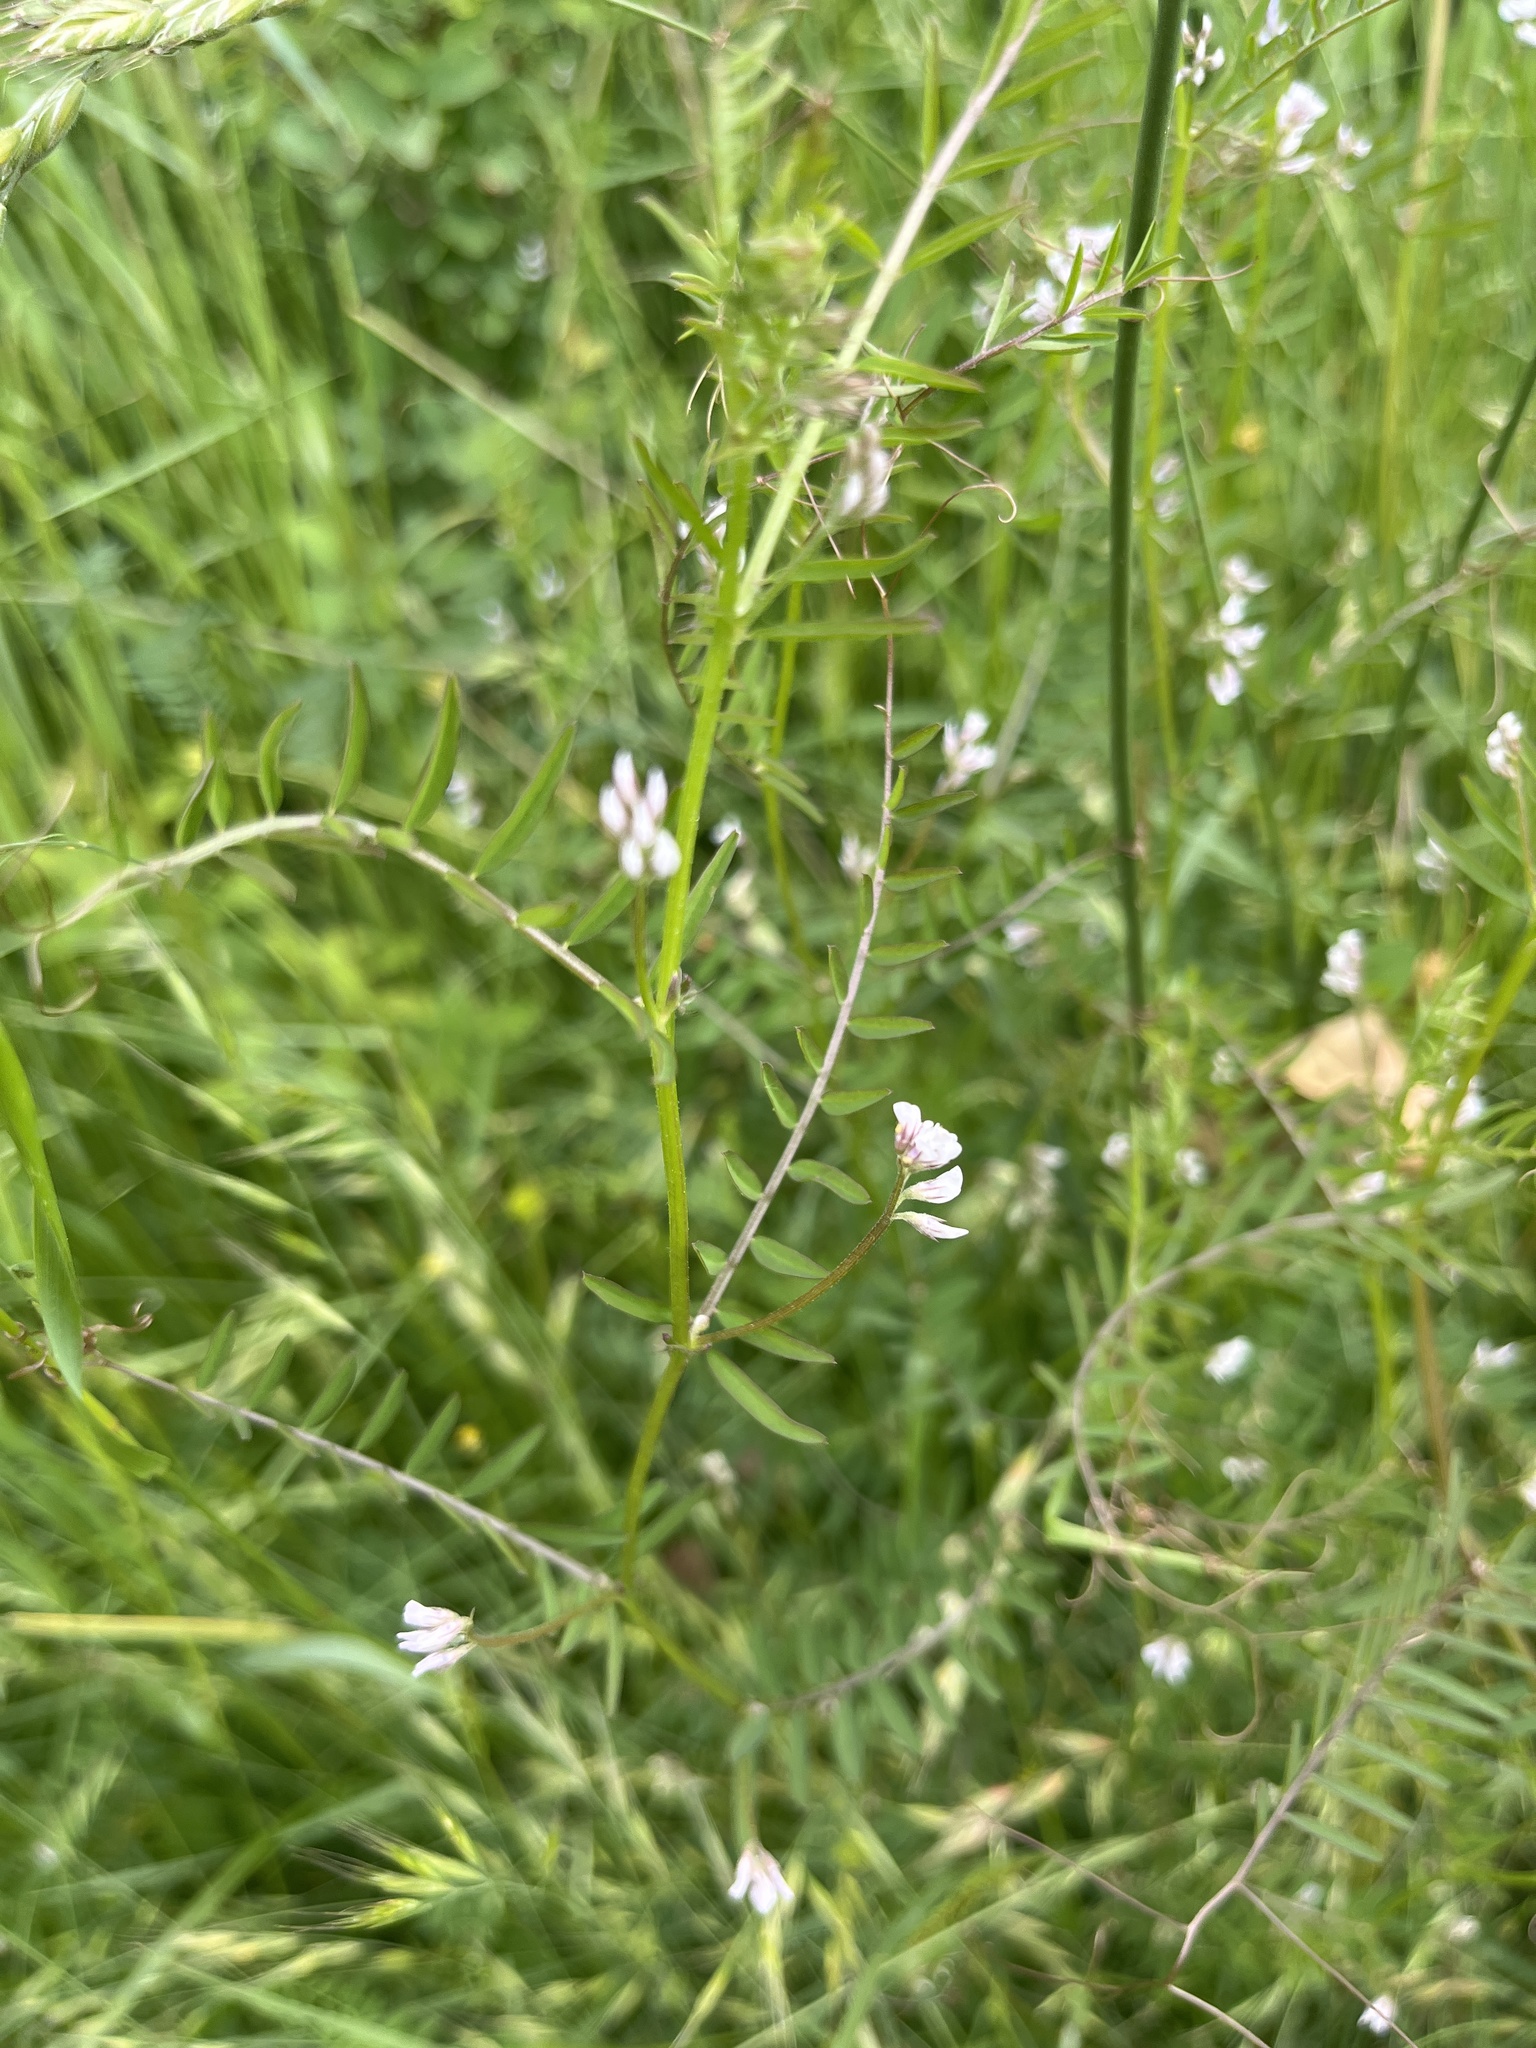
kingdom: Plantae
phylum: Tracheophyta
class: Magnoliopsida
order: Fabales
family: Fabaceae
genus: Vicia
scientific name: Vicia hirsuta
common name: Tiny vetch
